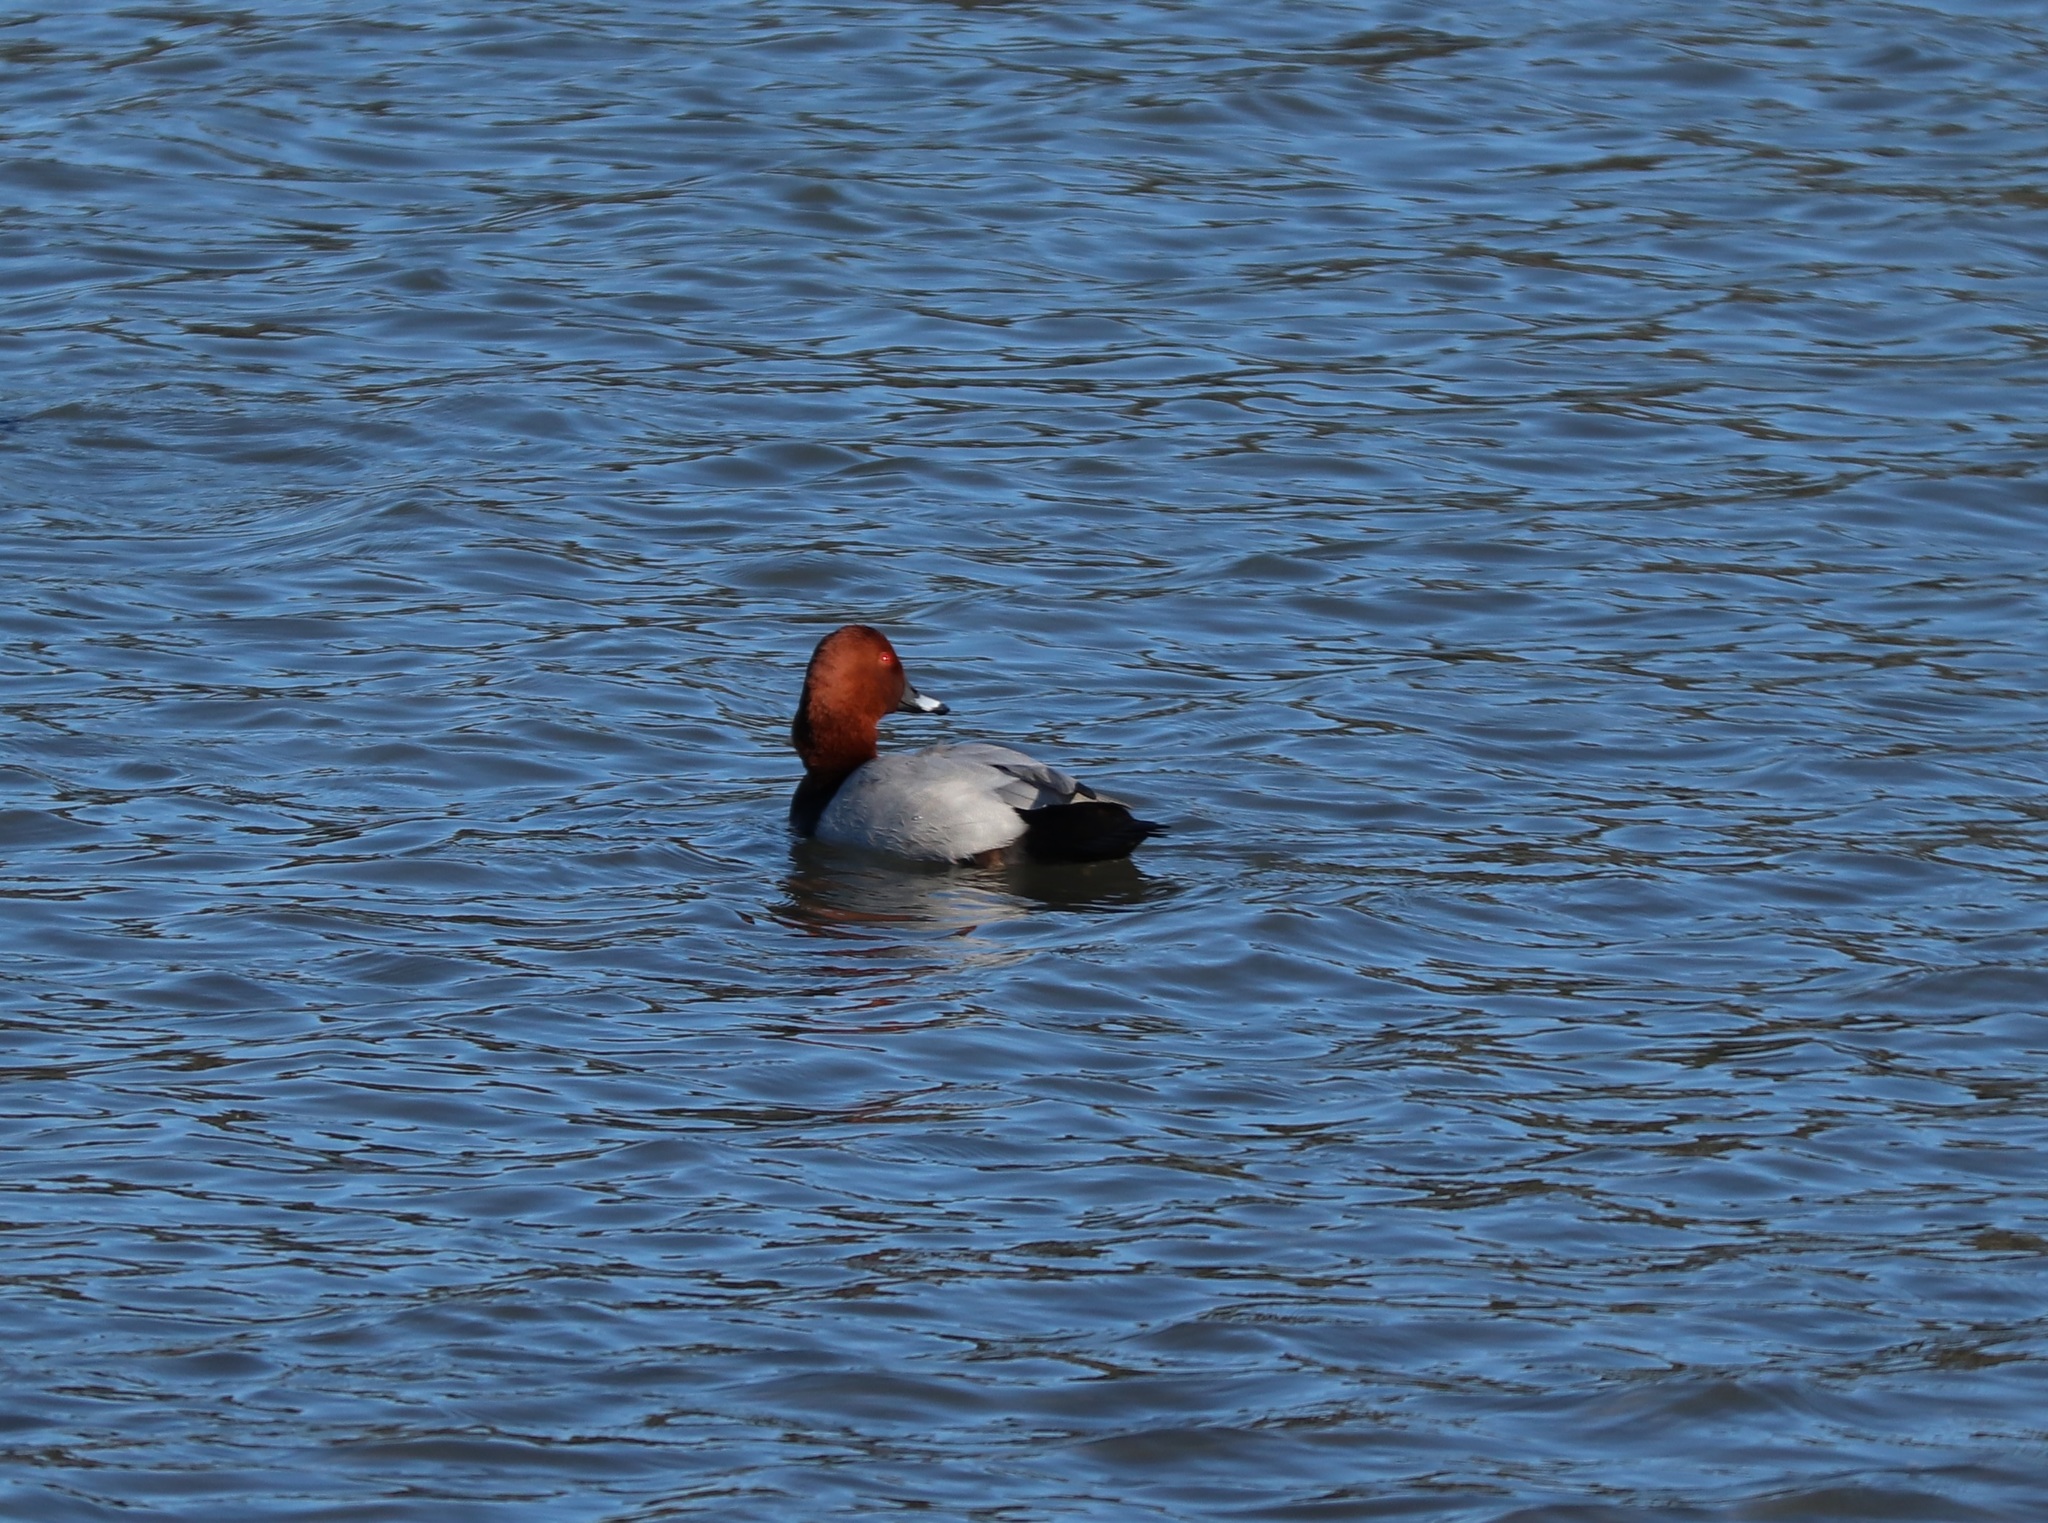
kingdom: Animalia
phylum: Chordata
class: Aves
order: Anseriformes
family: Anatidae
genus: Aythya
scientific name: Aythya ferina
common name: Common pochard
